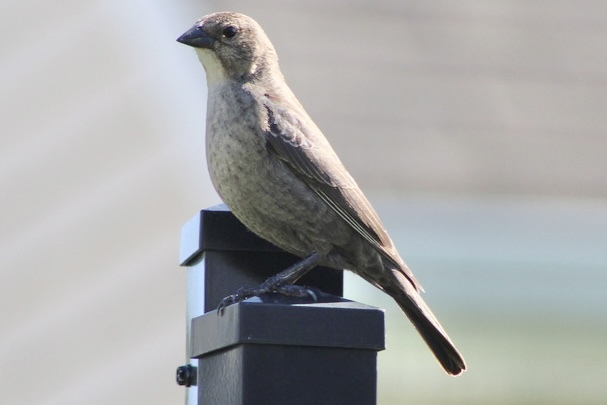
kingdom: Animalia
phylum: Chordata
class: Aves
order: Passeriformes
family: Icteridae
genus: Molothrus
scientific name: Molothrus ater
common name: Brown-headed cowbird
